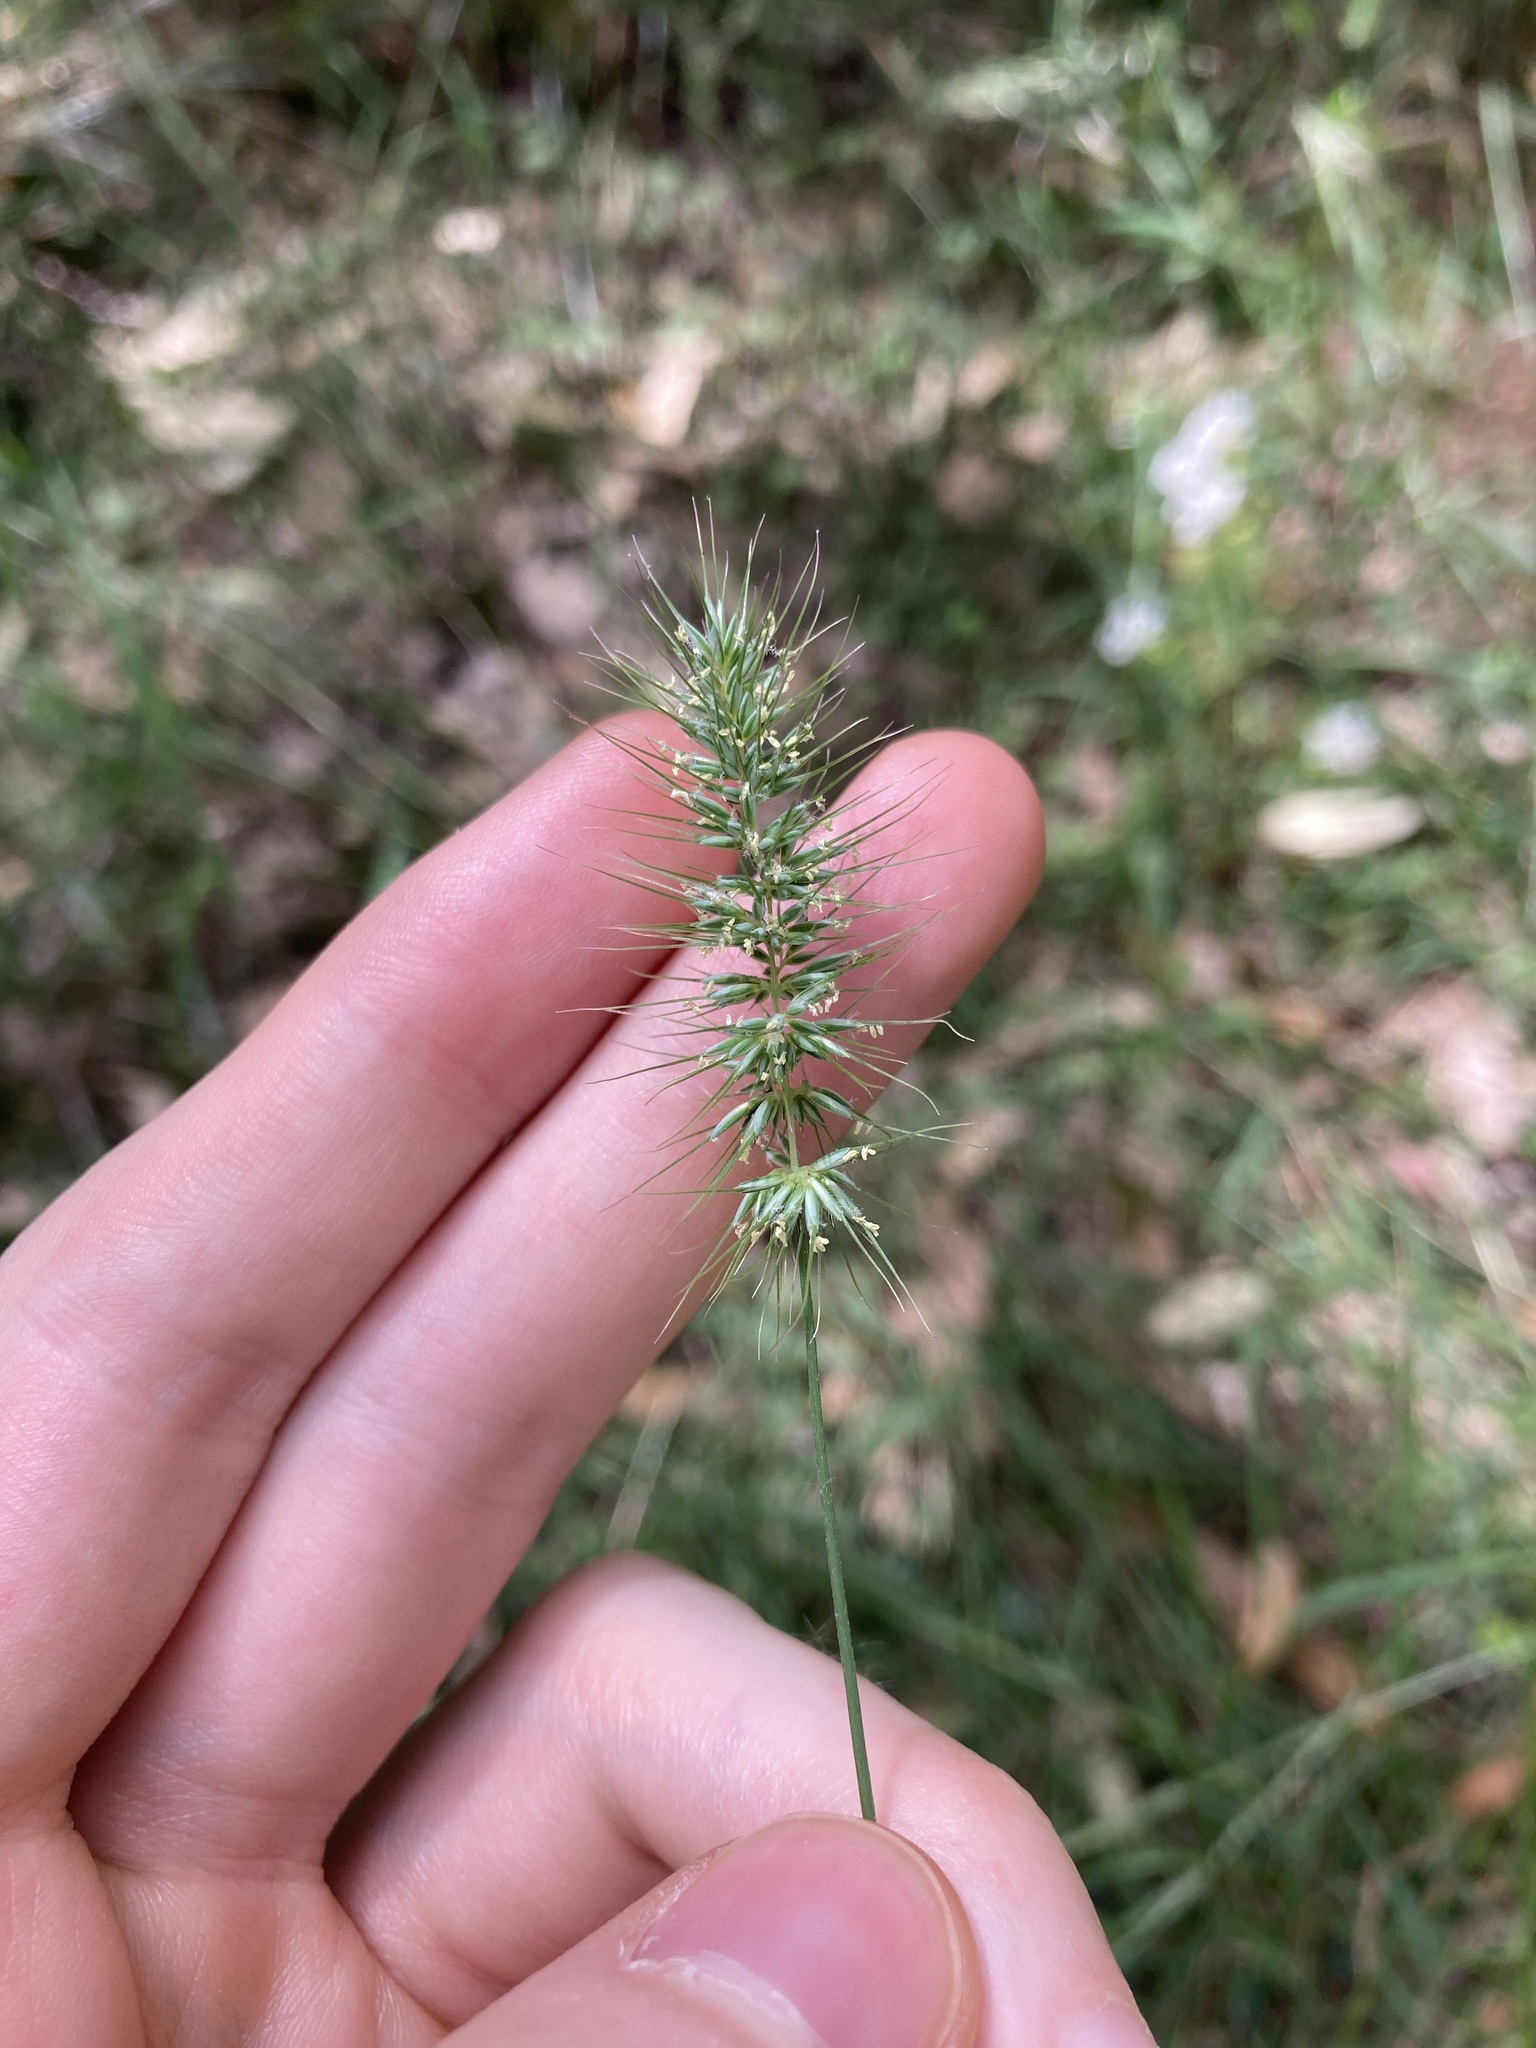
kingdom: Plantae
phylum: Tracheophyta
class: Liliopsida
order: Poales
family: Poaceae
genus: Echinopogon
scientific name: Echinopogon caespitosus
